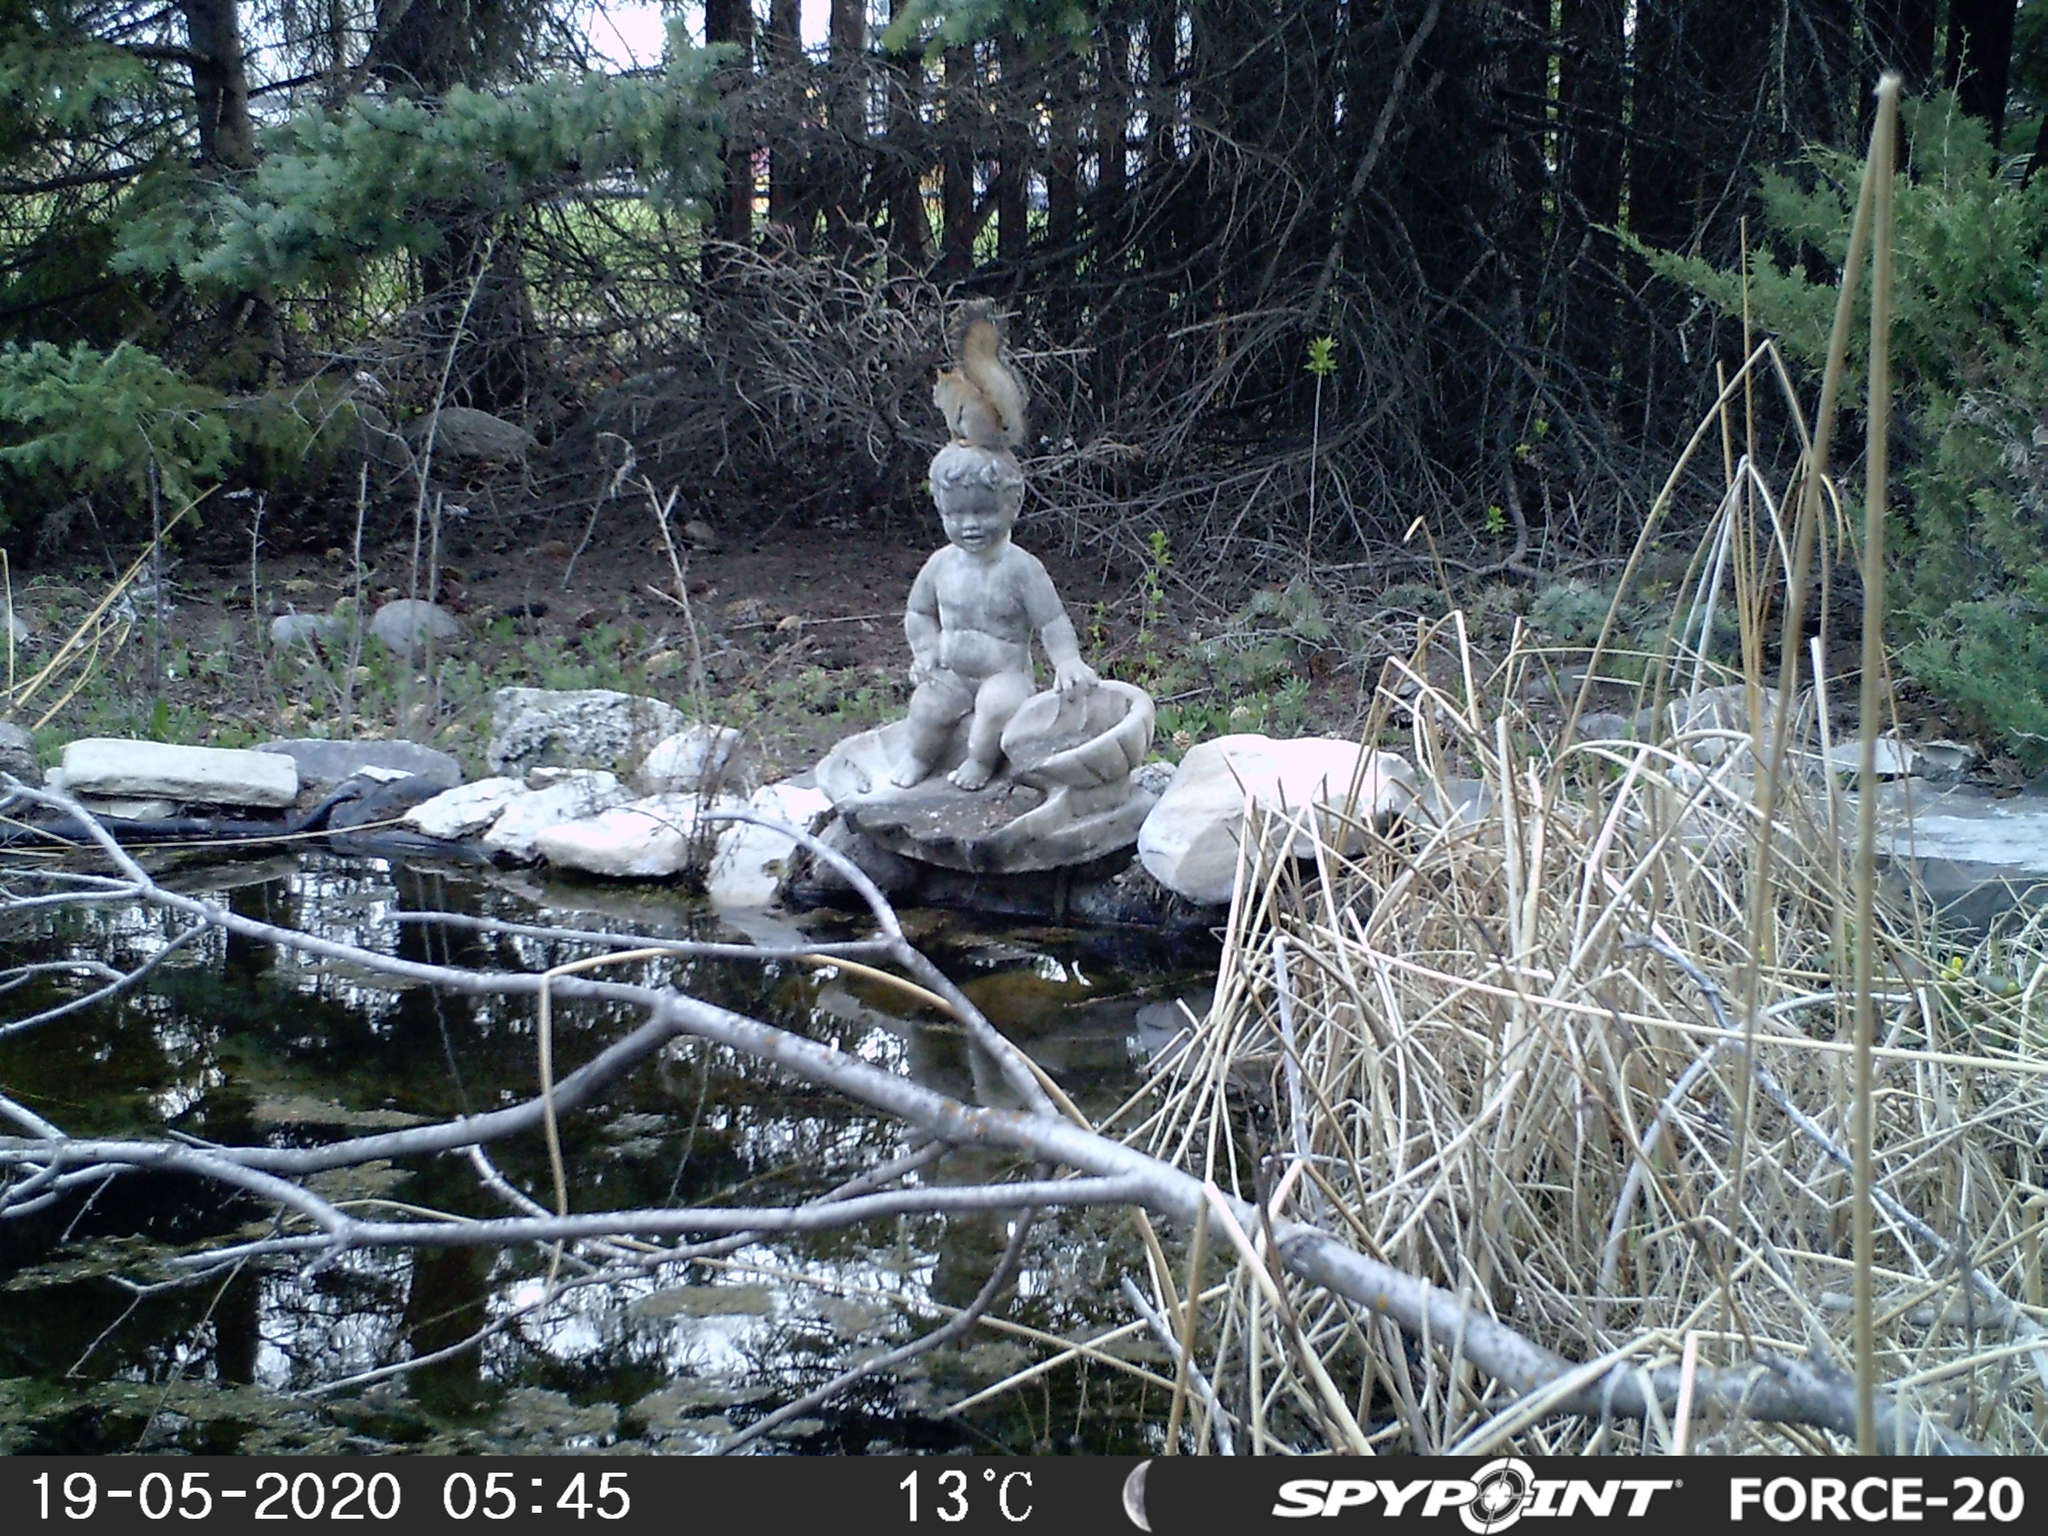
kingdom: Animalia
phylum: Chordata
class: Mammalia
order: Rodentia
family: Sciuridae
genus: Tamiasciurus
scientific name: Tamiasciurus hudsonicus
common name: Red squirrel
